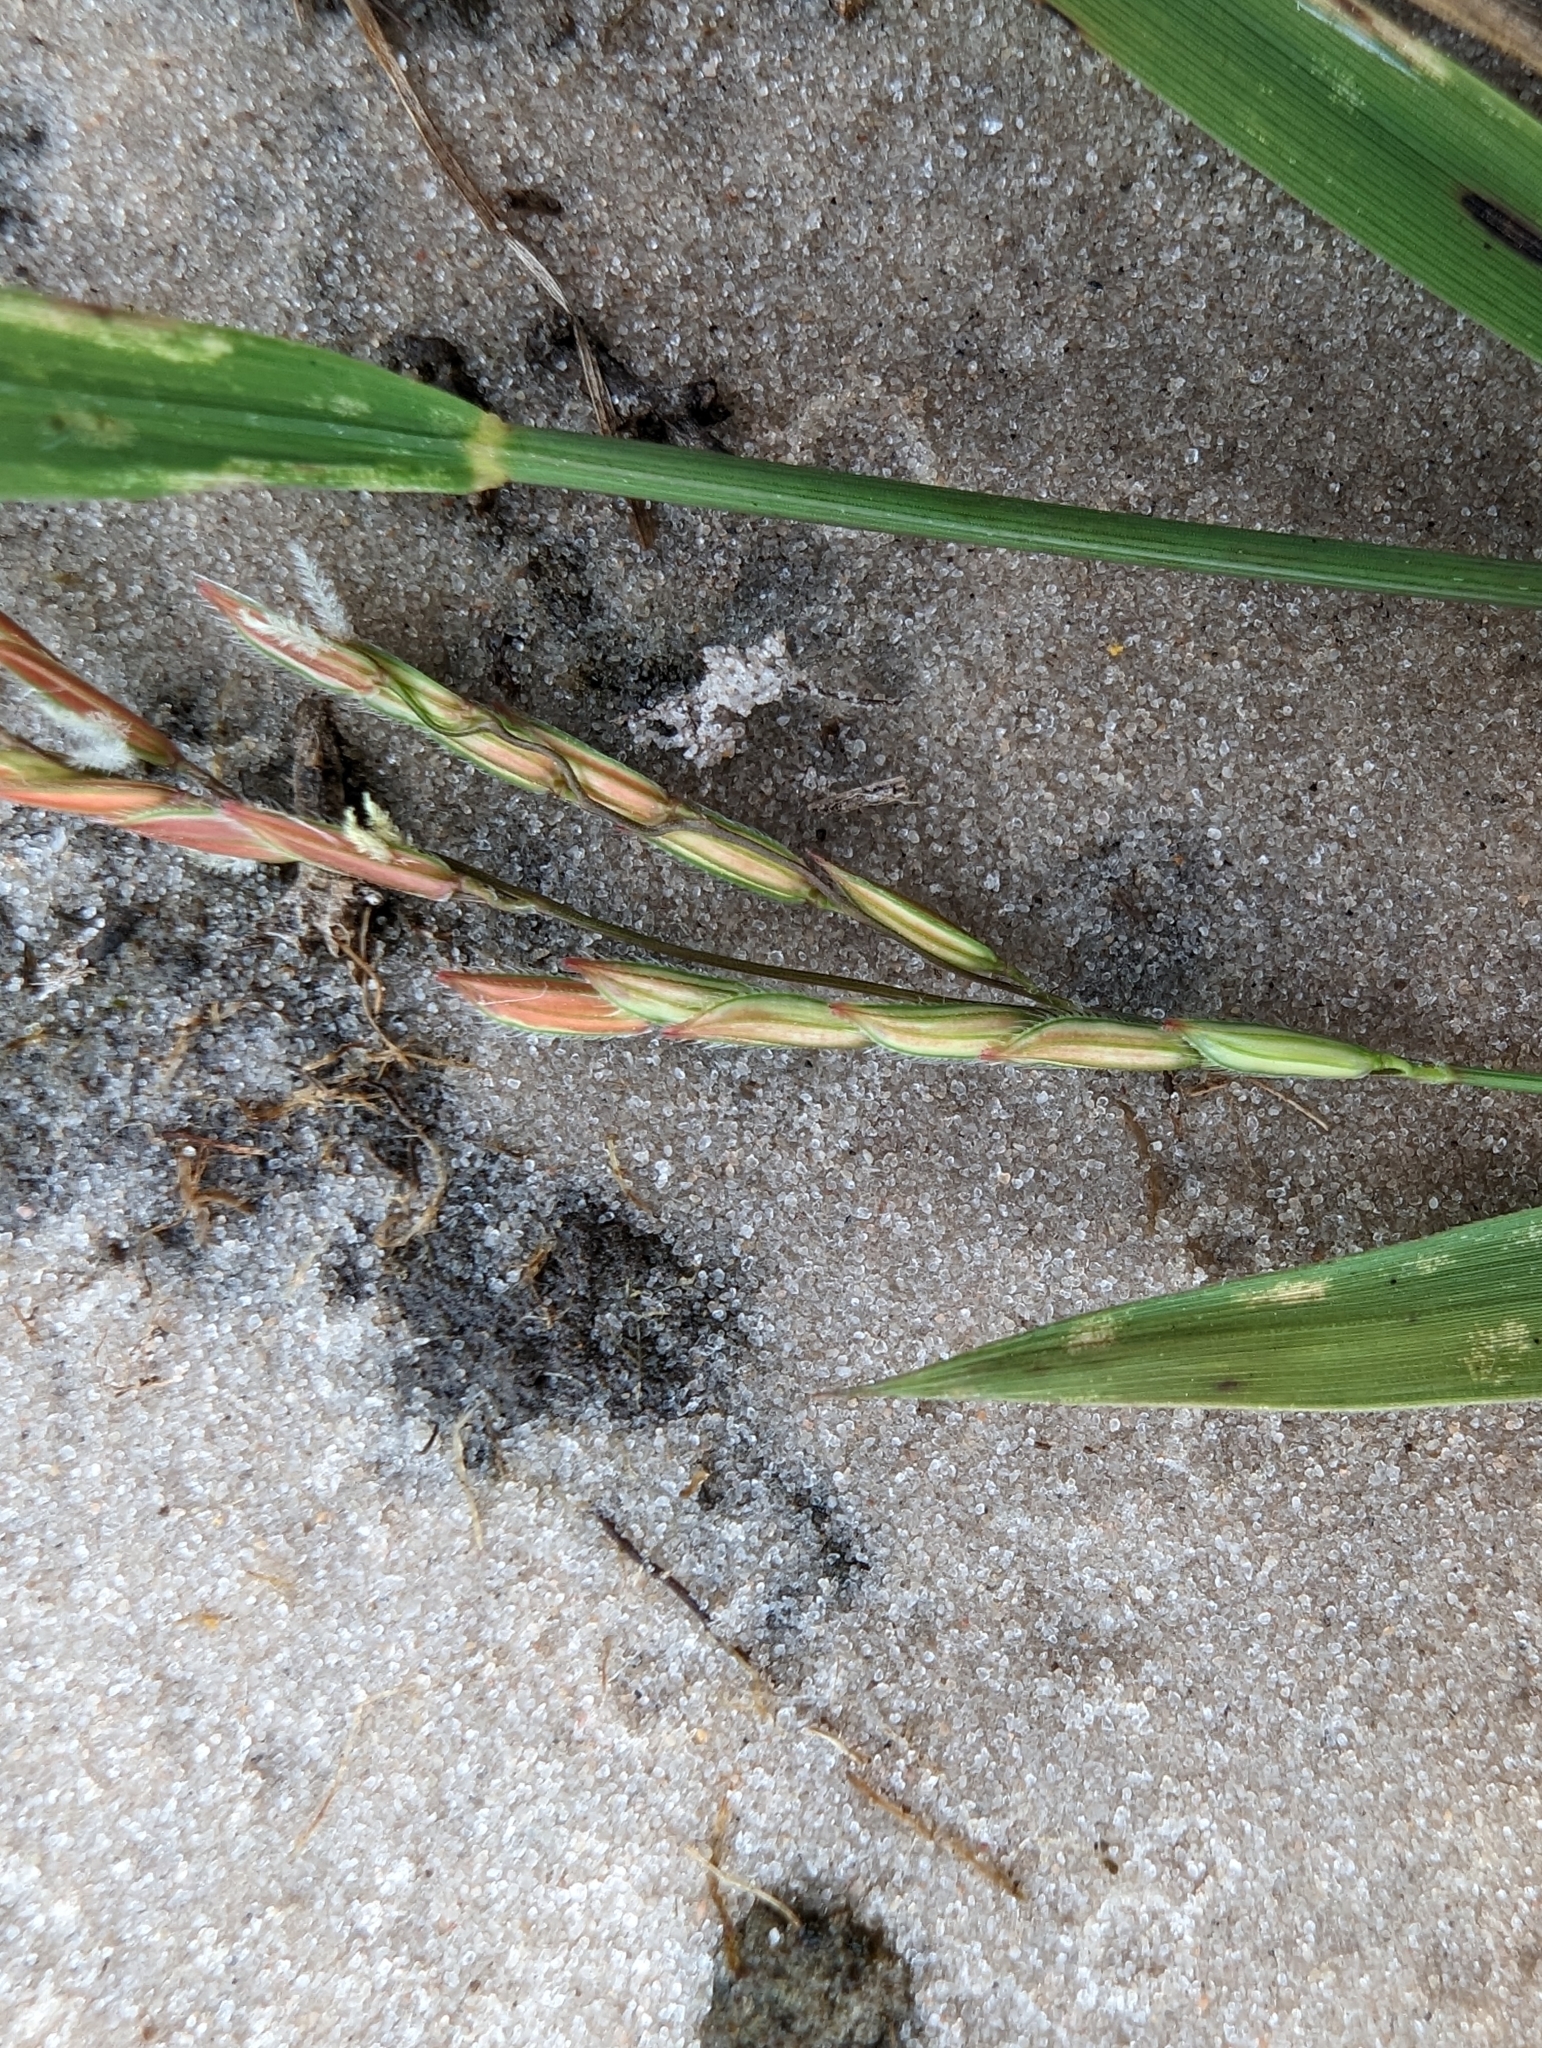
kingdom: Plantae
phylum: Tracheophyta
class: Liliopsida
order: Poales
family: Poaceae
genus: Leersia
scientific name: Leersia hexandra
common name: Southern cut grass
